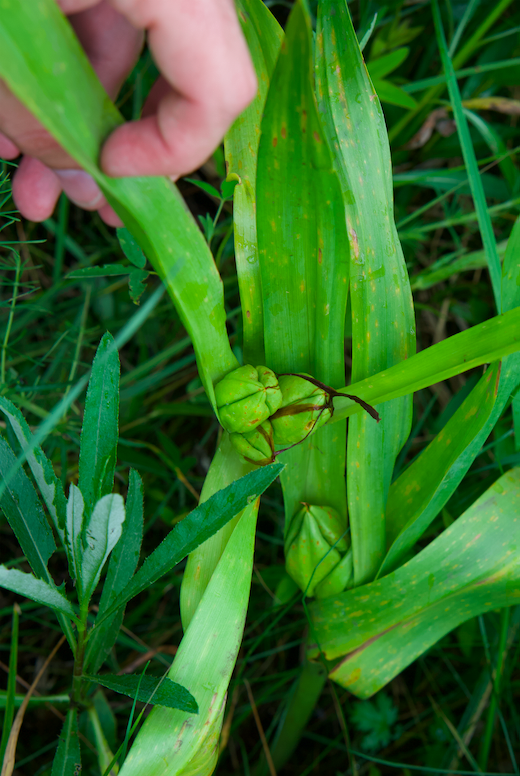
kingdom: Plantae
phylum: Tracheophyta
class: Liliopsida
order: Liliales
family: Colchicaceae
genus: Colchicum
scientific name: Colchicum autumnale
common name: Autumn crocus
